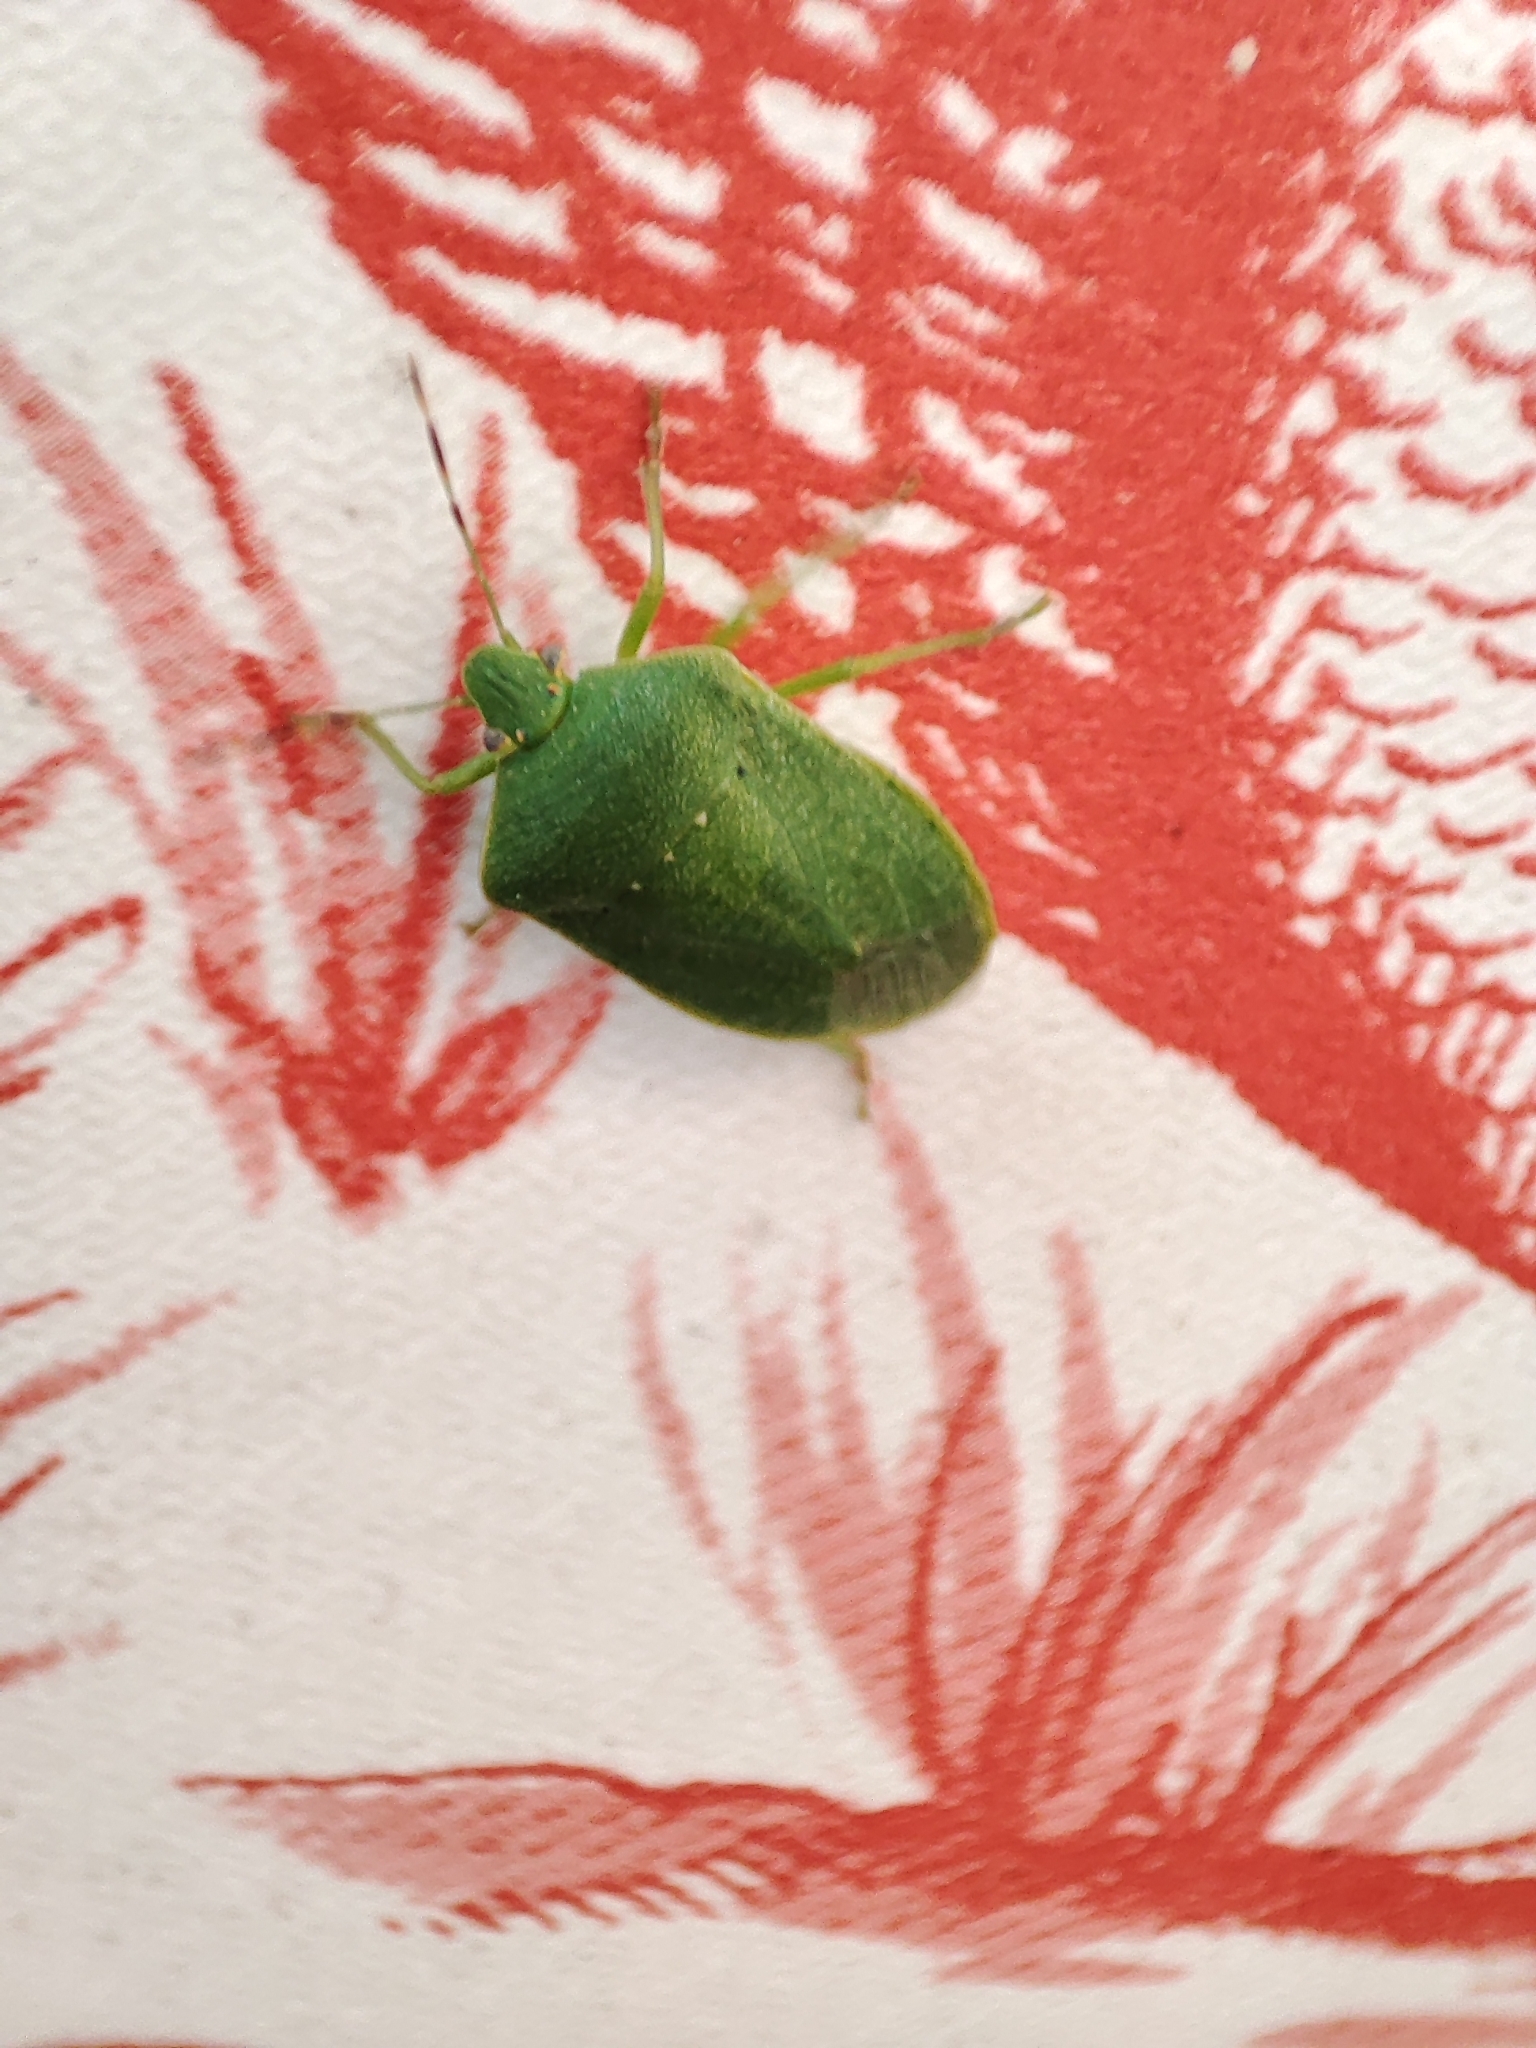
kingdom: Animalia
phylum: Arthropoda
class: Insecta
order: Hemiptera
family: Pentatomidae
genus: Nezara
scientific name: Nezara viridula
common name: Southern green stink bug
